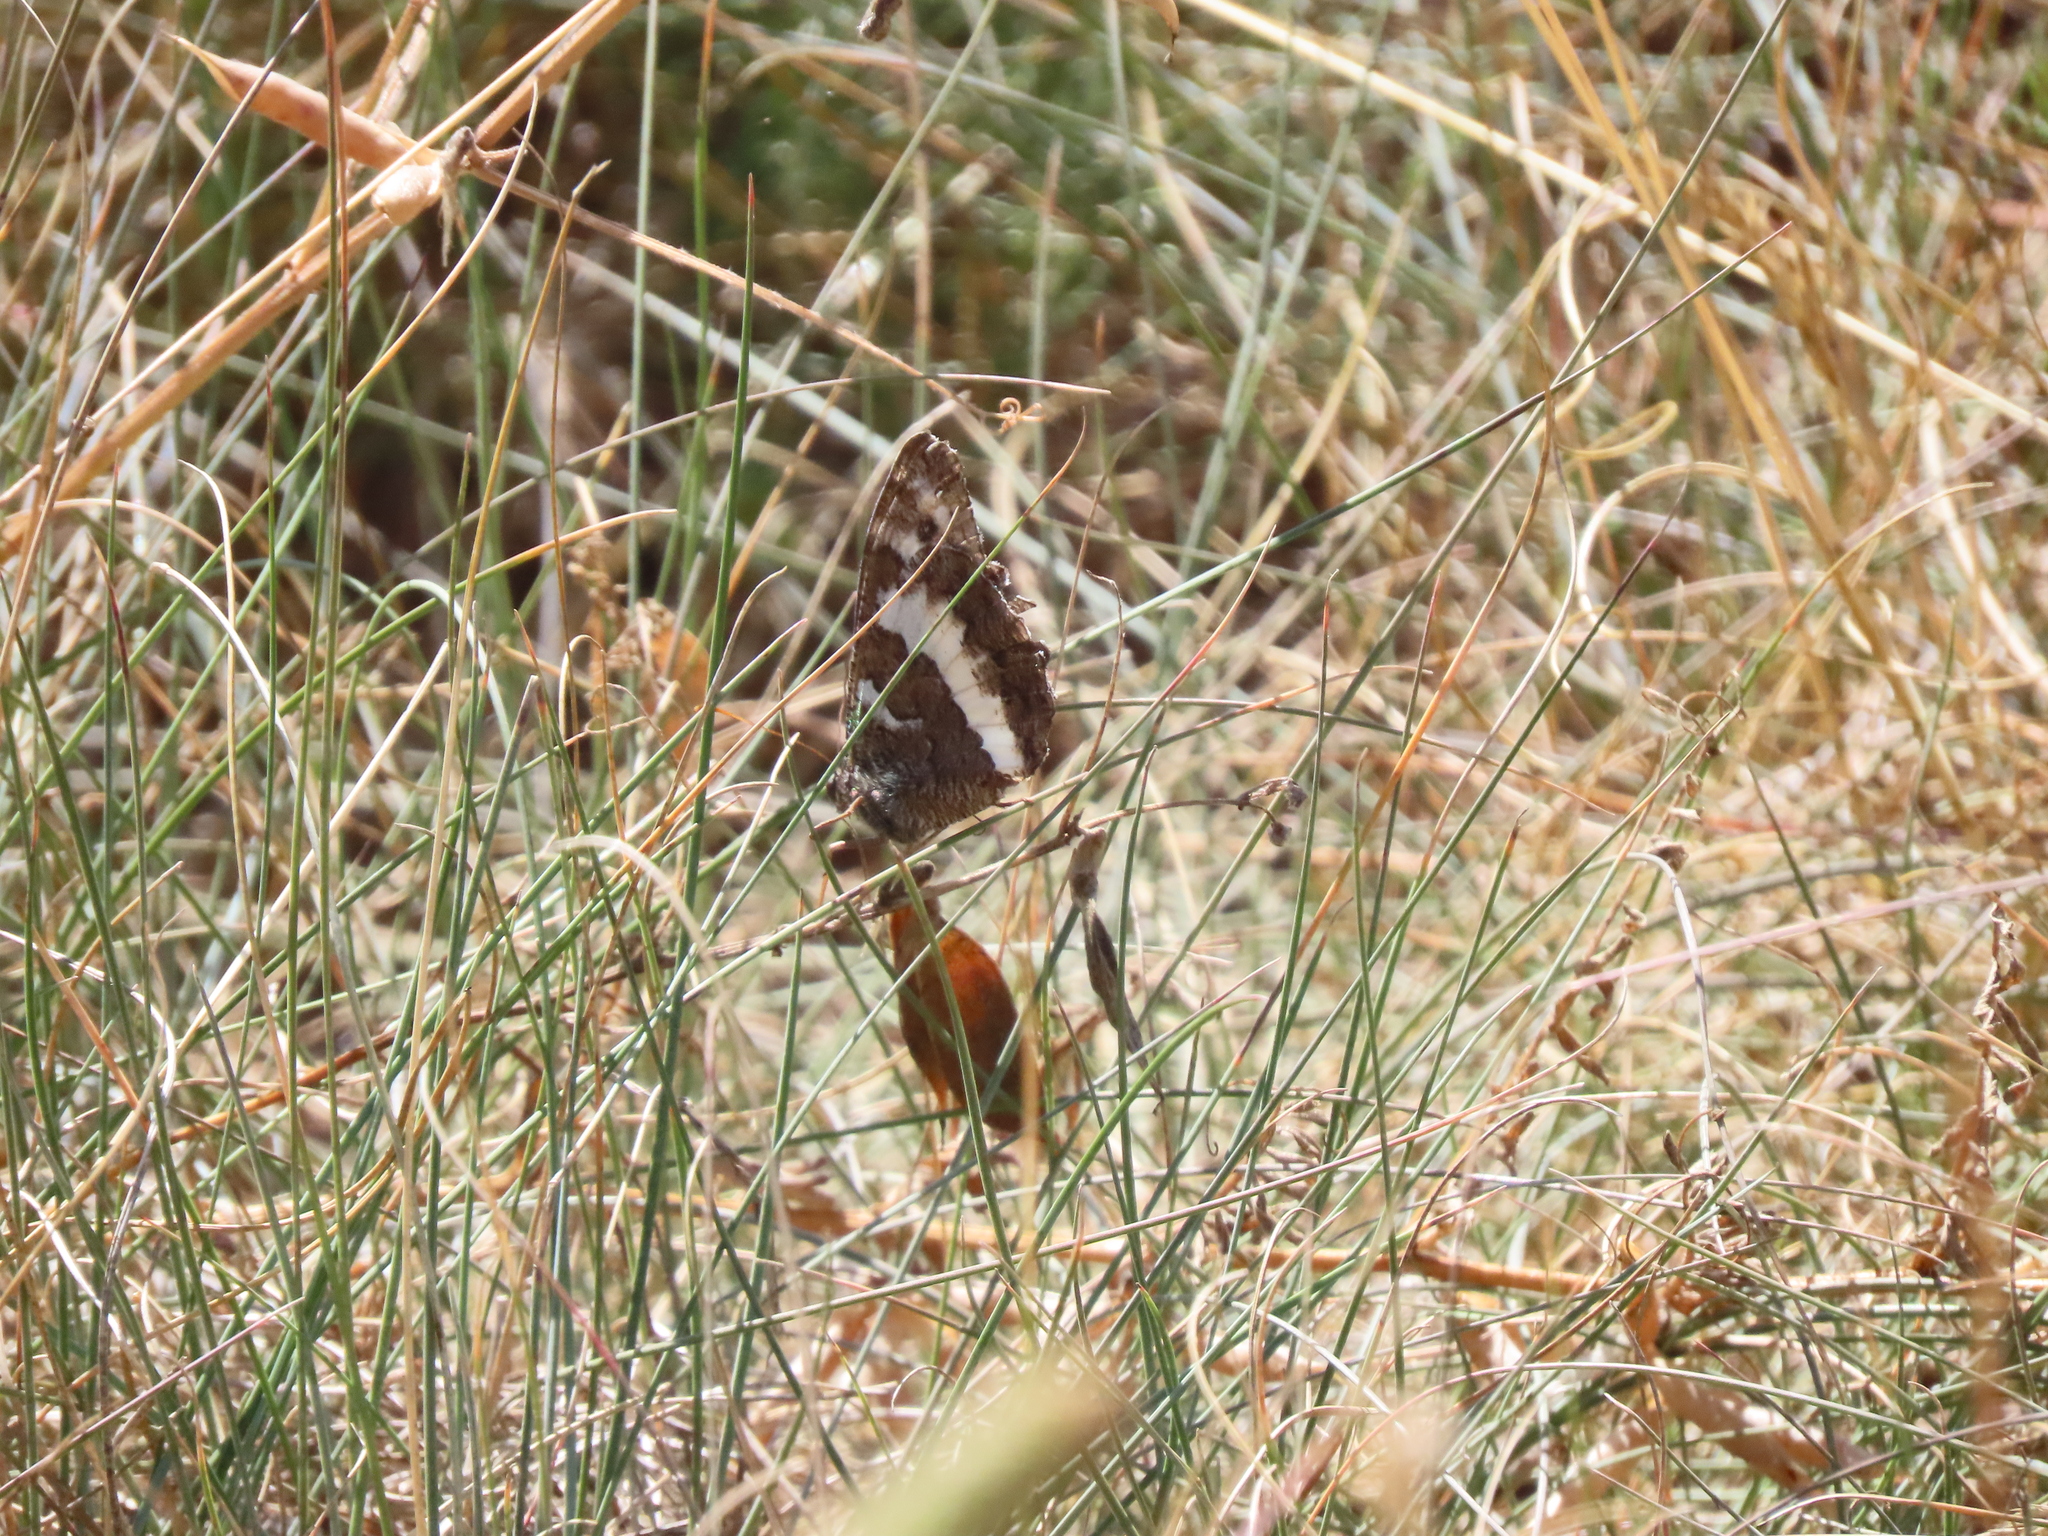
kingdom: Animalia
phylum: Arthropoda
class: Insecta
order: Lepidoptera
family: Lycaenidae
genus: Loweia
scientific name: Loweia tityrus
